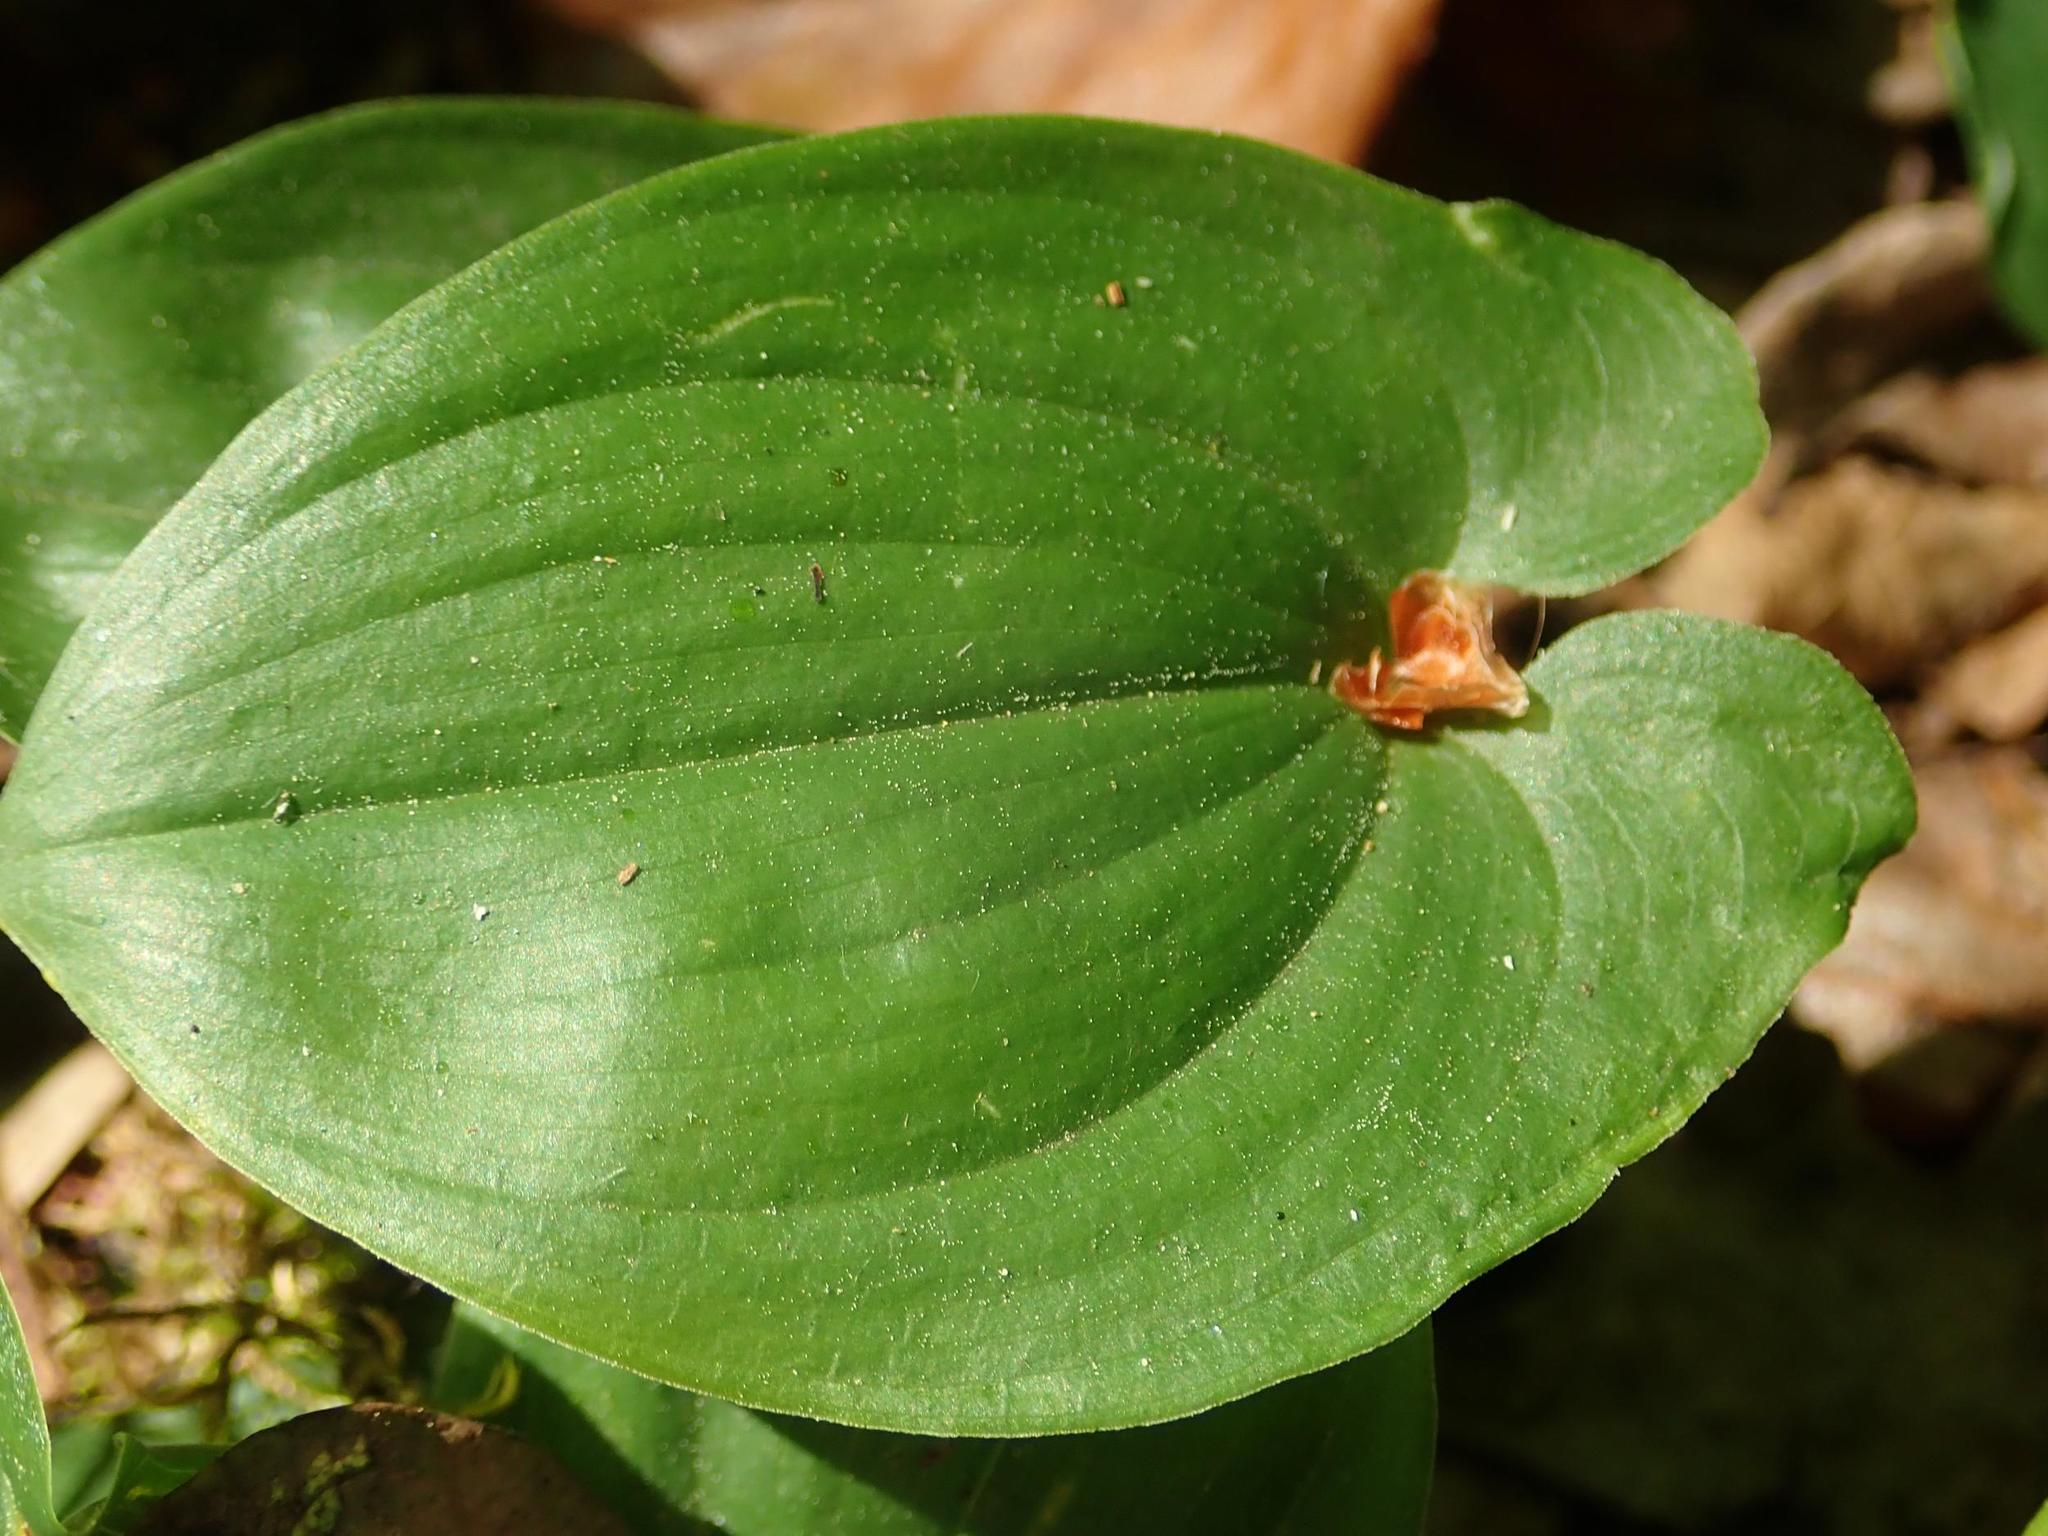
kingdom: Plantae
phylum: Tracheophyta
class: Liliopsida
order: Asparagales
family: Asparagaceae
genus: Maianthemum
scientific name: Maianthemum bifolium
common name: May lily
